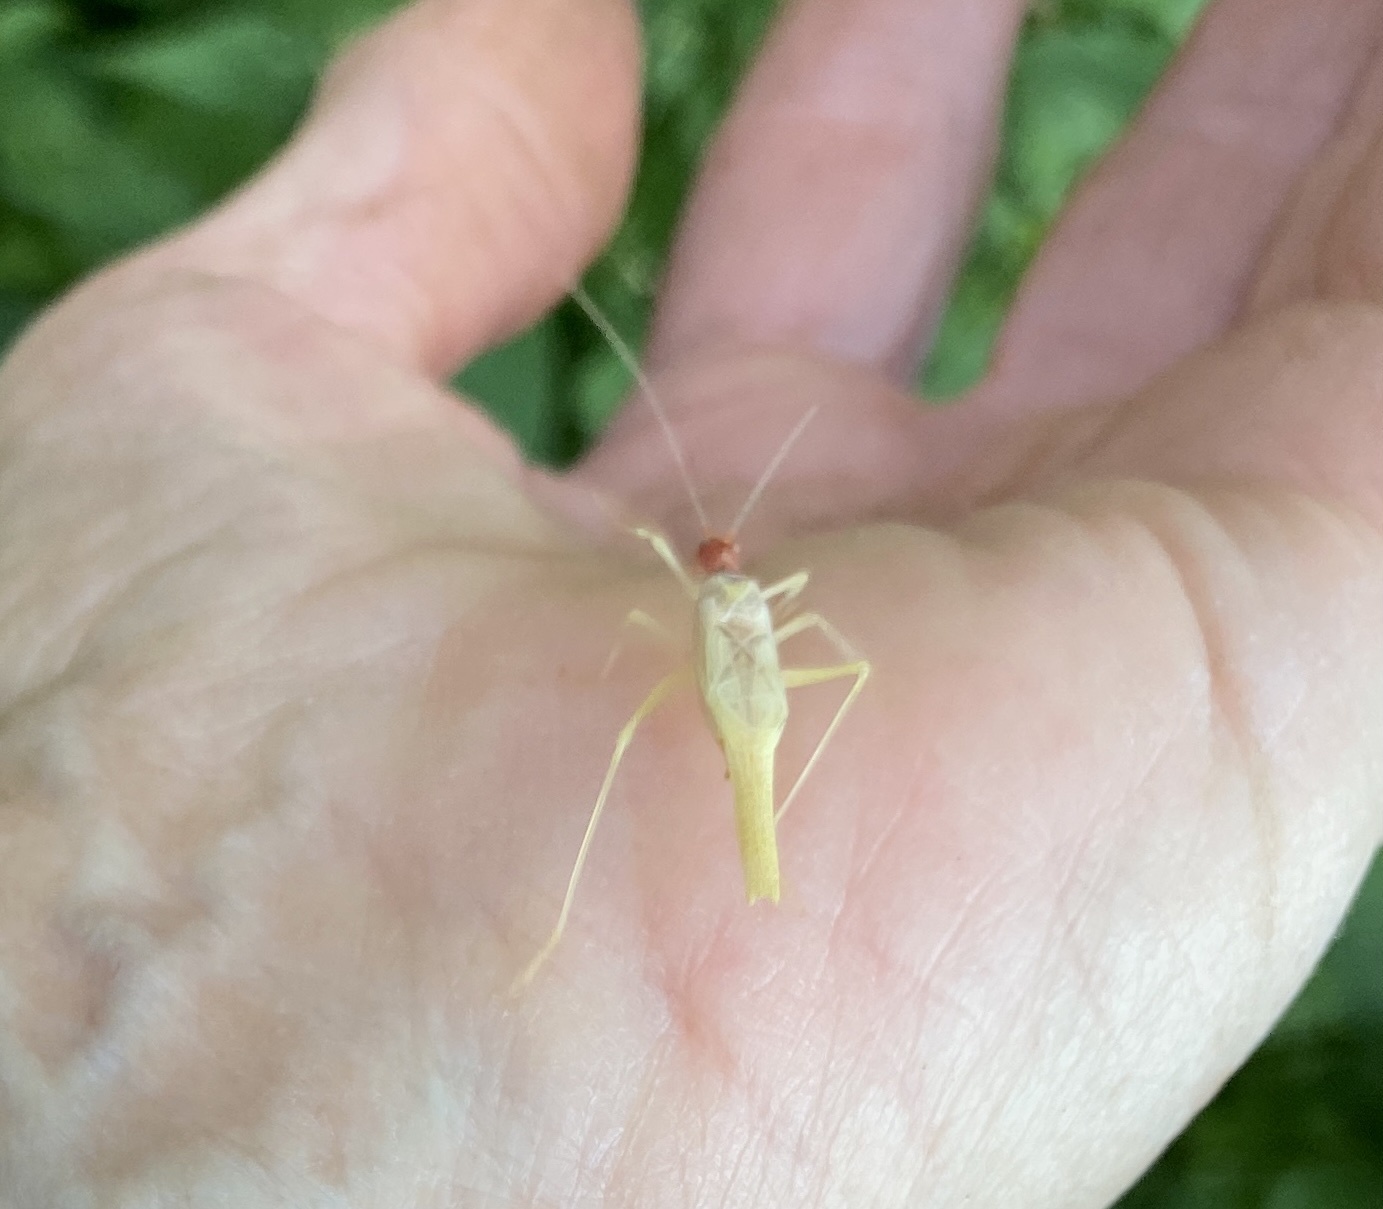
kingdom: Animalia
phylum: Arthropoda
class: Insecta
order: Orthoptera
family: Gryllidae
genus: Neoxabea
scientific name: Neoxabea bipunctata
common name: Two-spotted tree cricket
